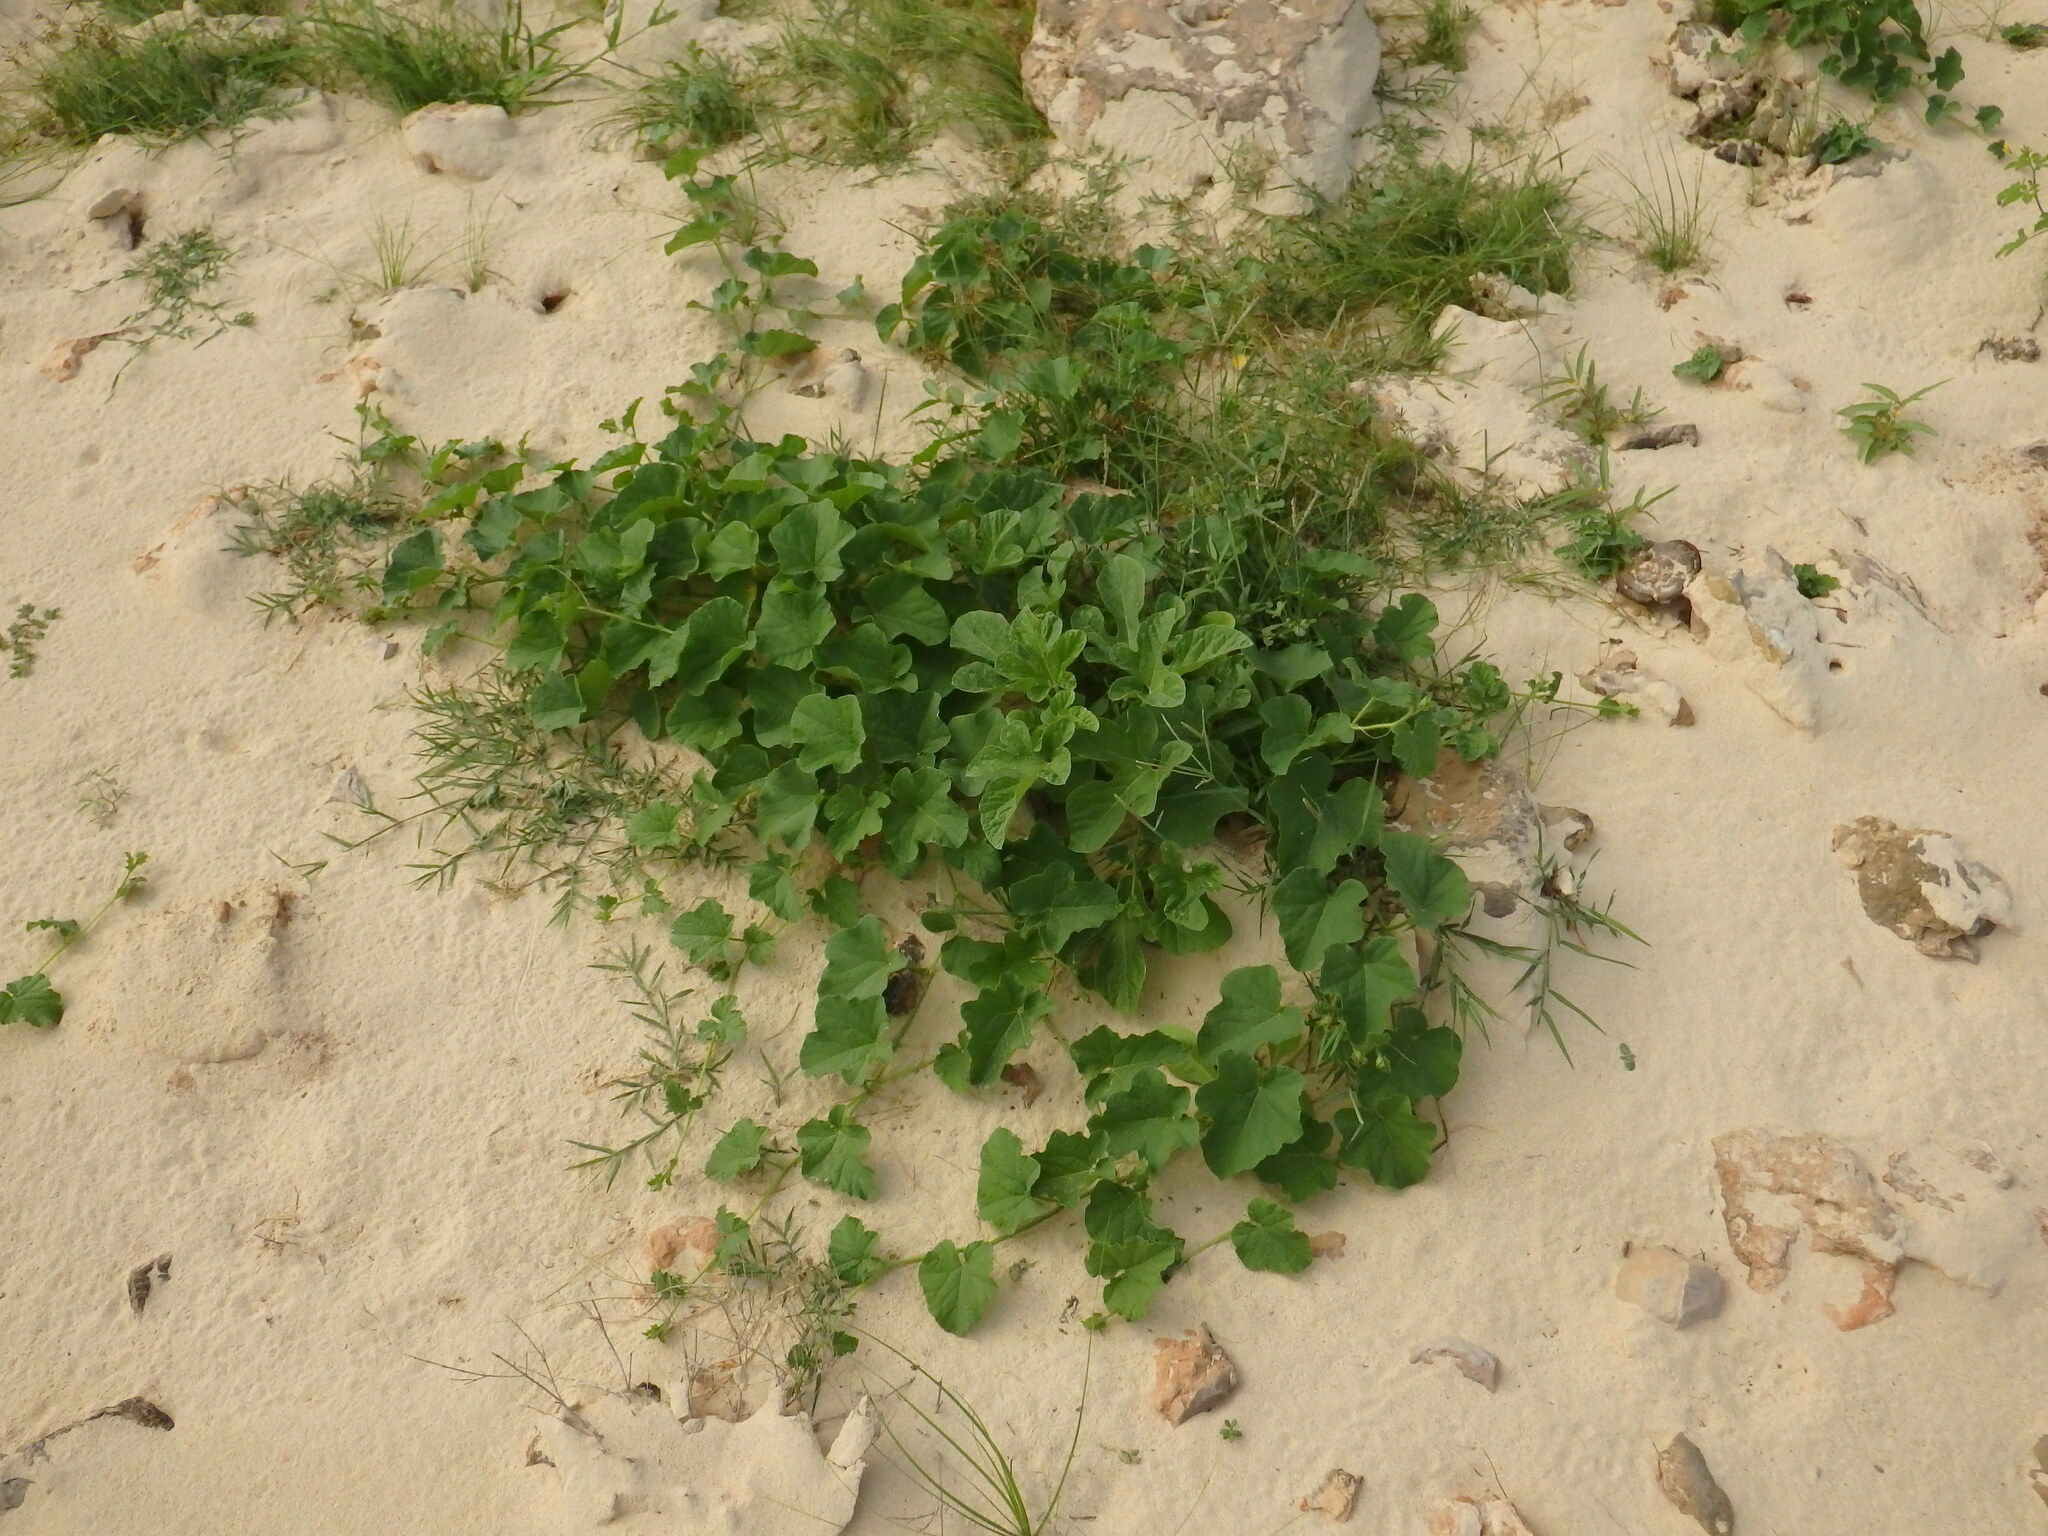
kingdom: Plantae
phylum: Tracheophyta
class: Magnoliopsida
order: Cucurbitales
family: Cucurbitaceae
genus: Cucumis
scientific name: Cucumis melo
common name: Melon
